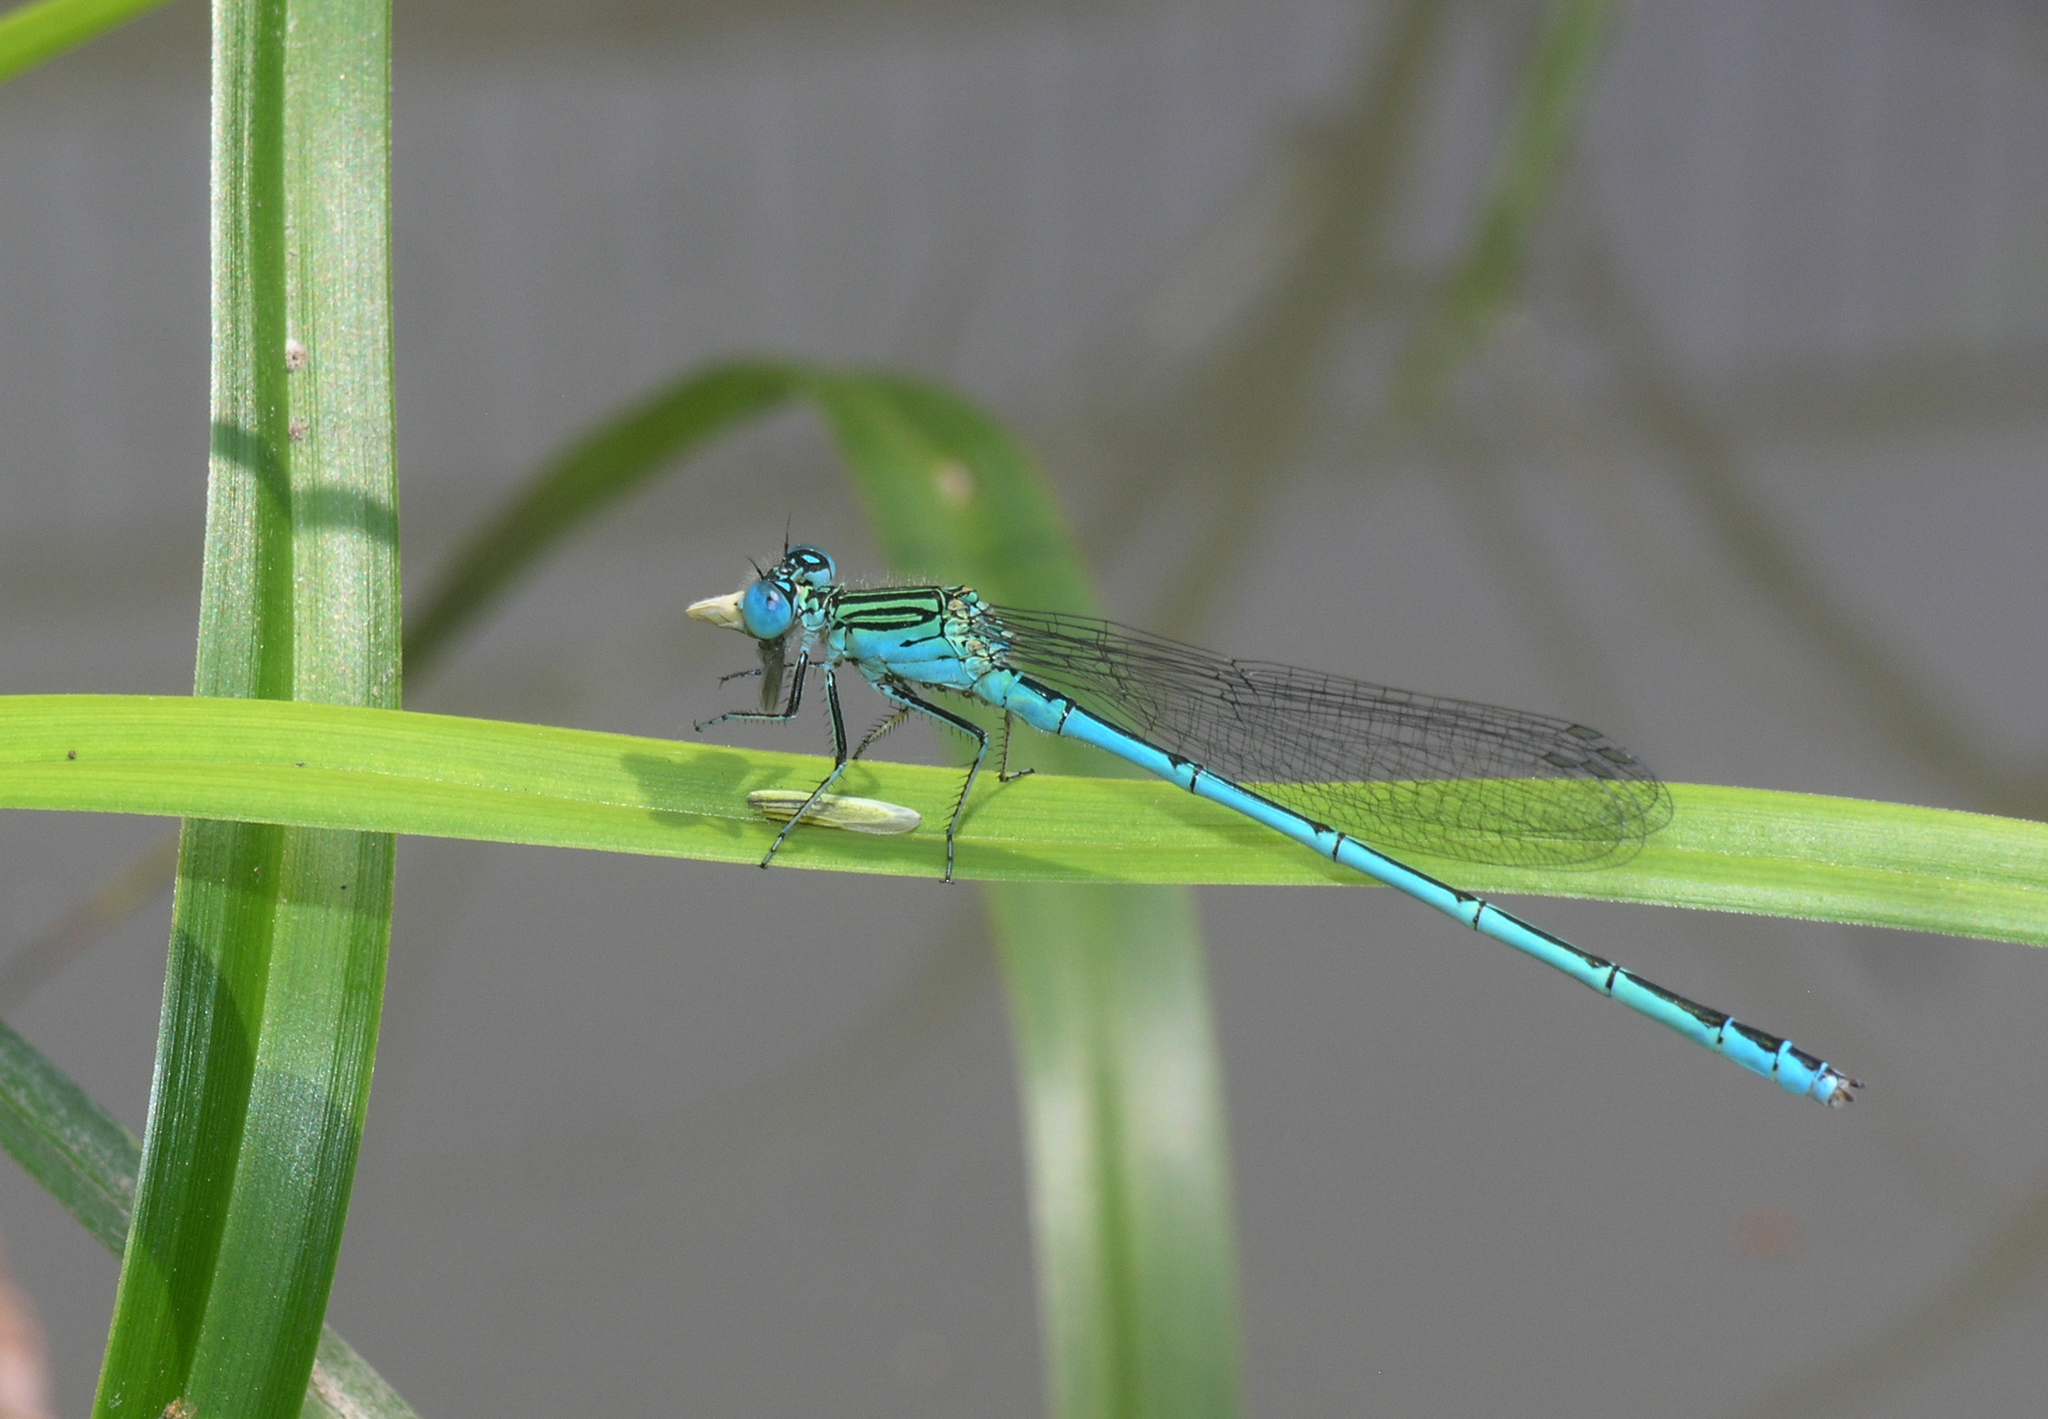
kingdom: Animalia
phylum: Arthropoda
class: Insecta
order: Odonata
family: Coenagrionidae
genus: Paracercion
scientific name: Paracercion plagiosum
